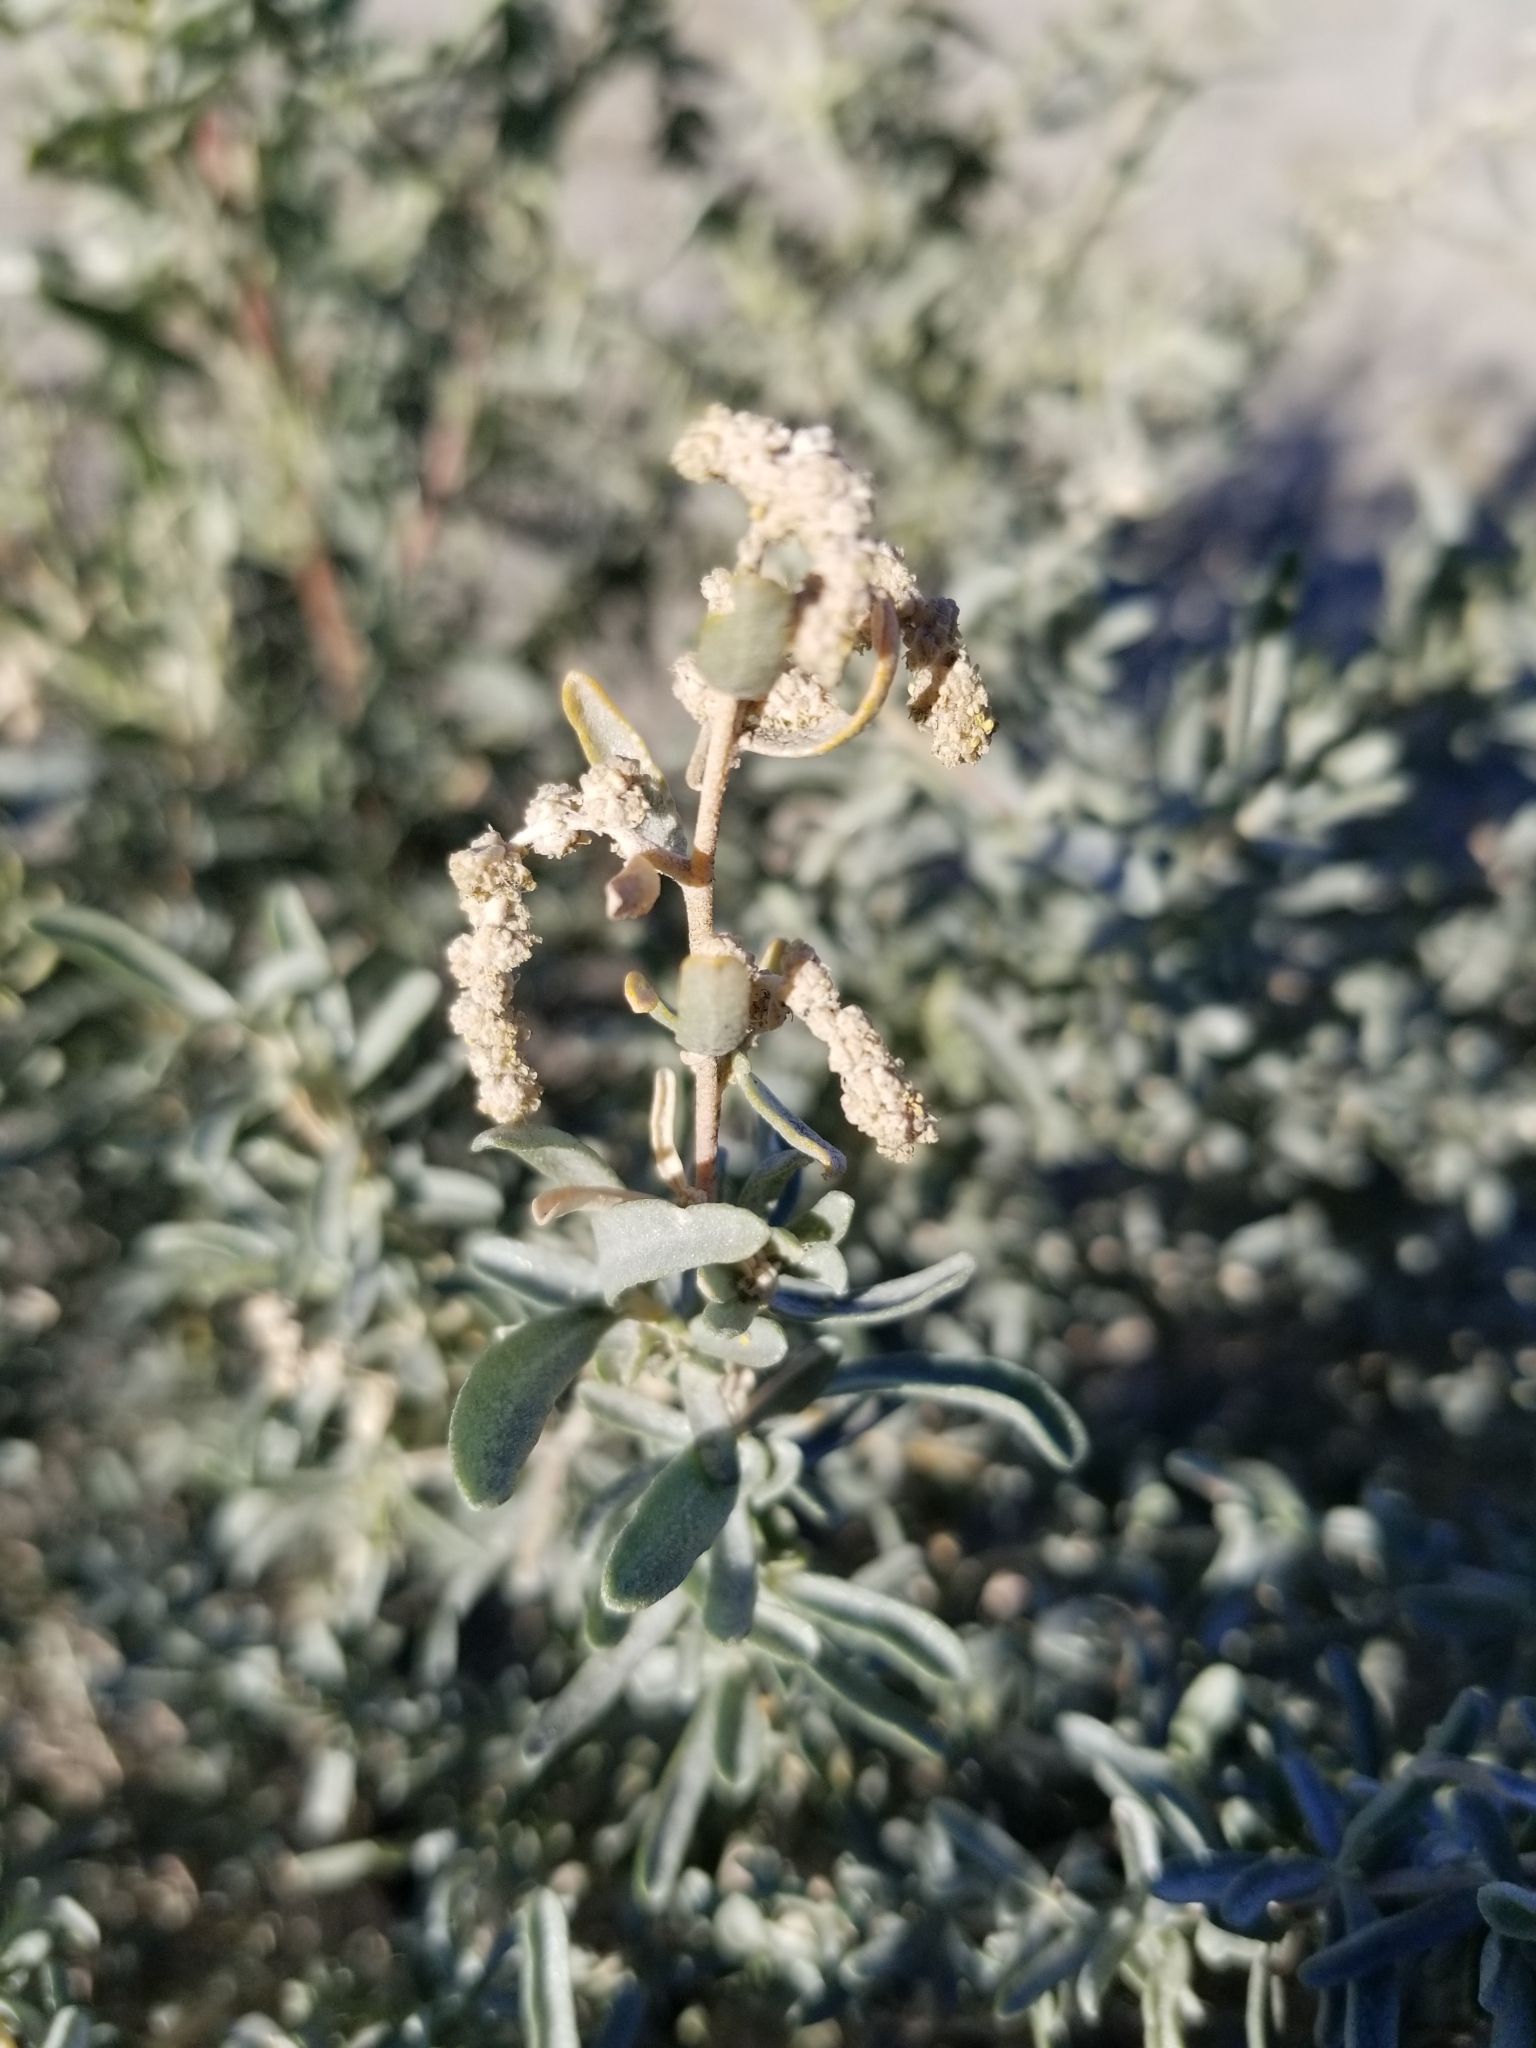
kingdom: Plantae
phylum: Tracheophyta
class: Magnoliopsida
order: Caryophyllales
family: Amaranthaceae
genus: Atriplex
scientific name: Atriplex canescens
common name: Four-wing saltbush
